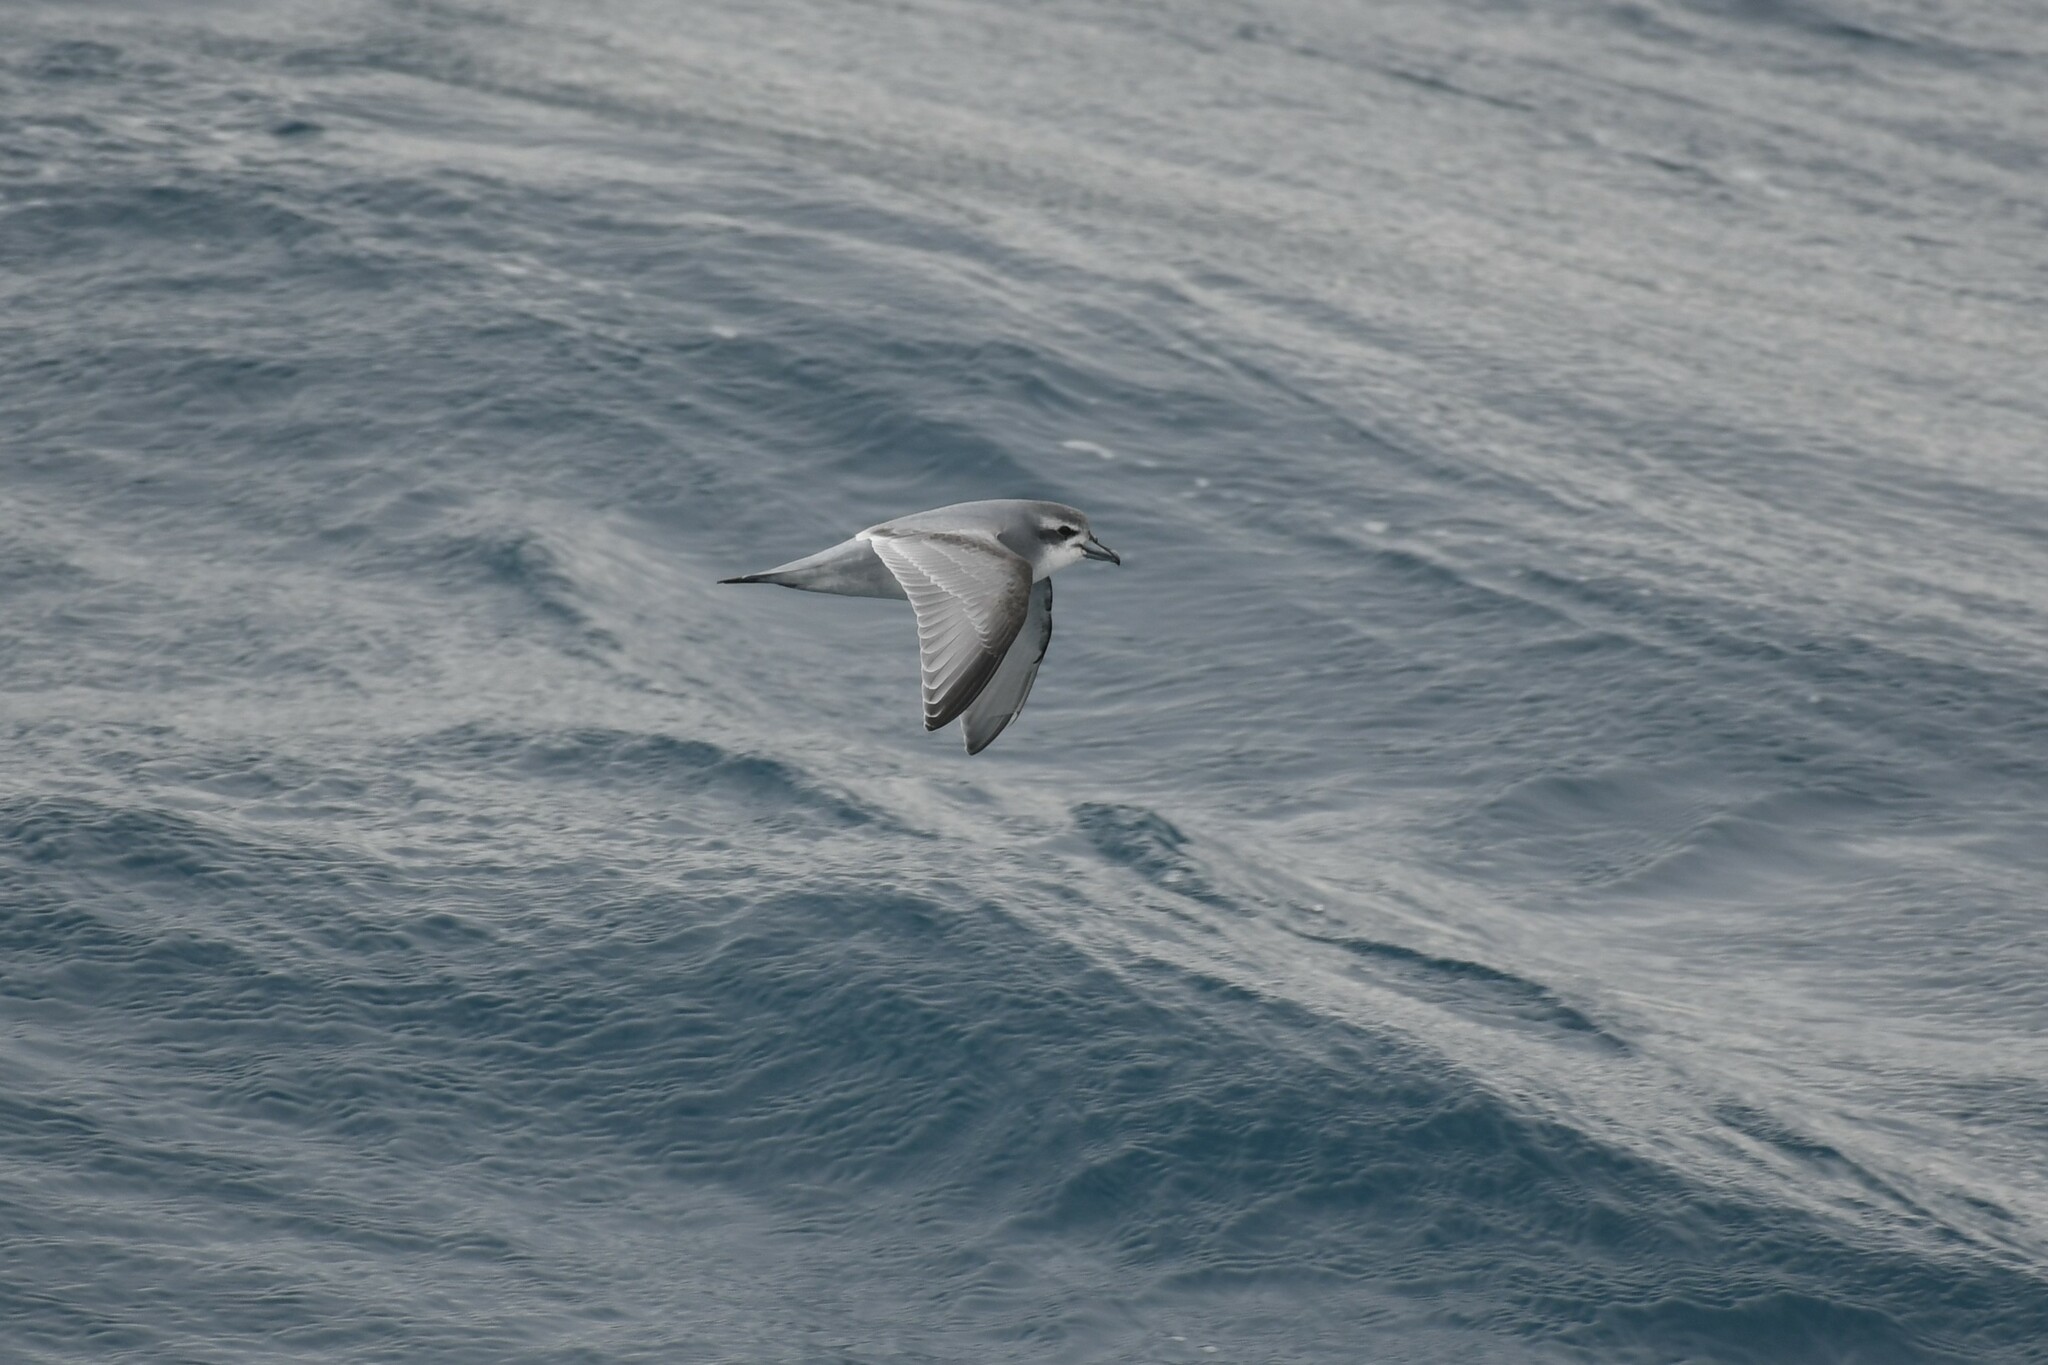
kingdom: Animalia
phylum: Chordata
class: Aves
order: Procellariiformes
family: Procellariidae
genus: Pachyptila
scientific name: Pachyptila desolata
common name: Antarctic prion
